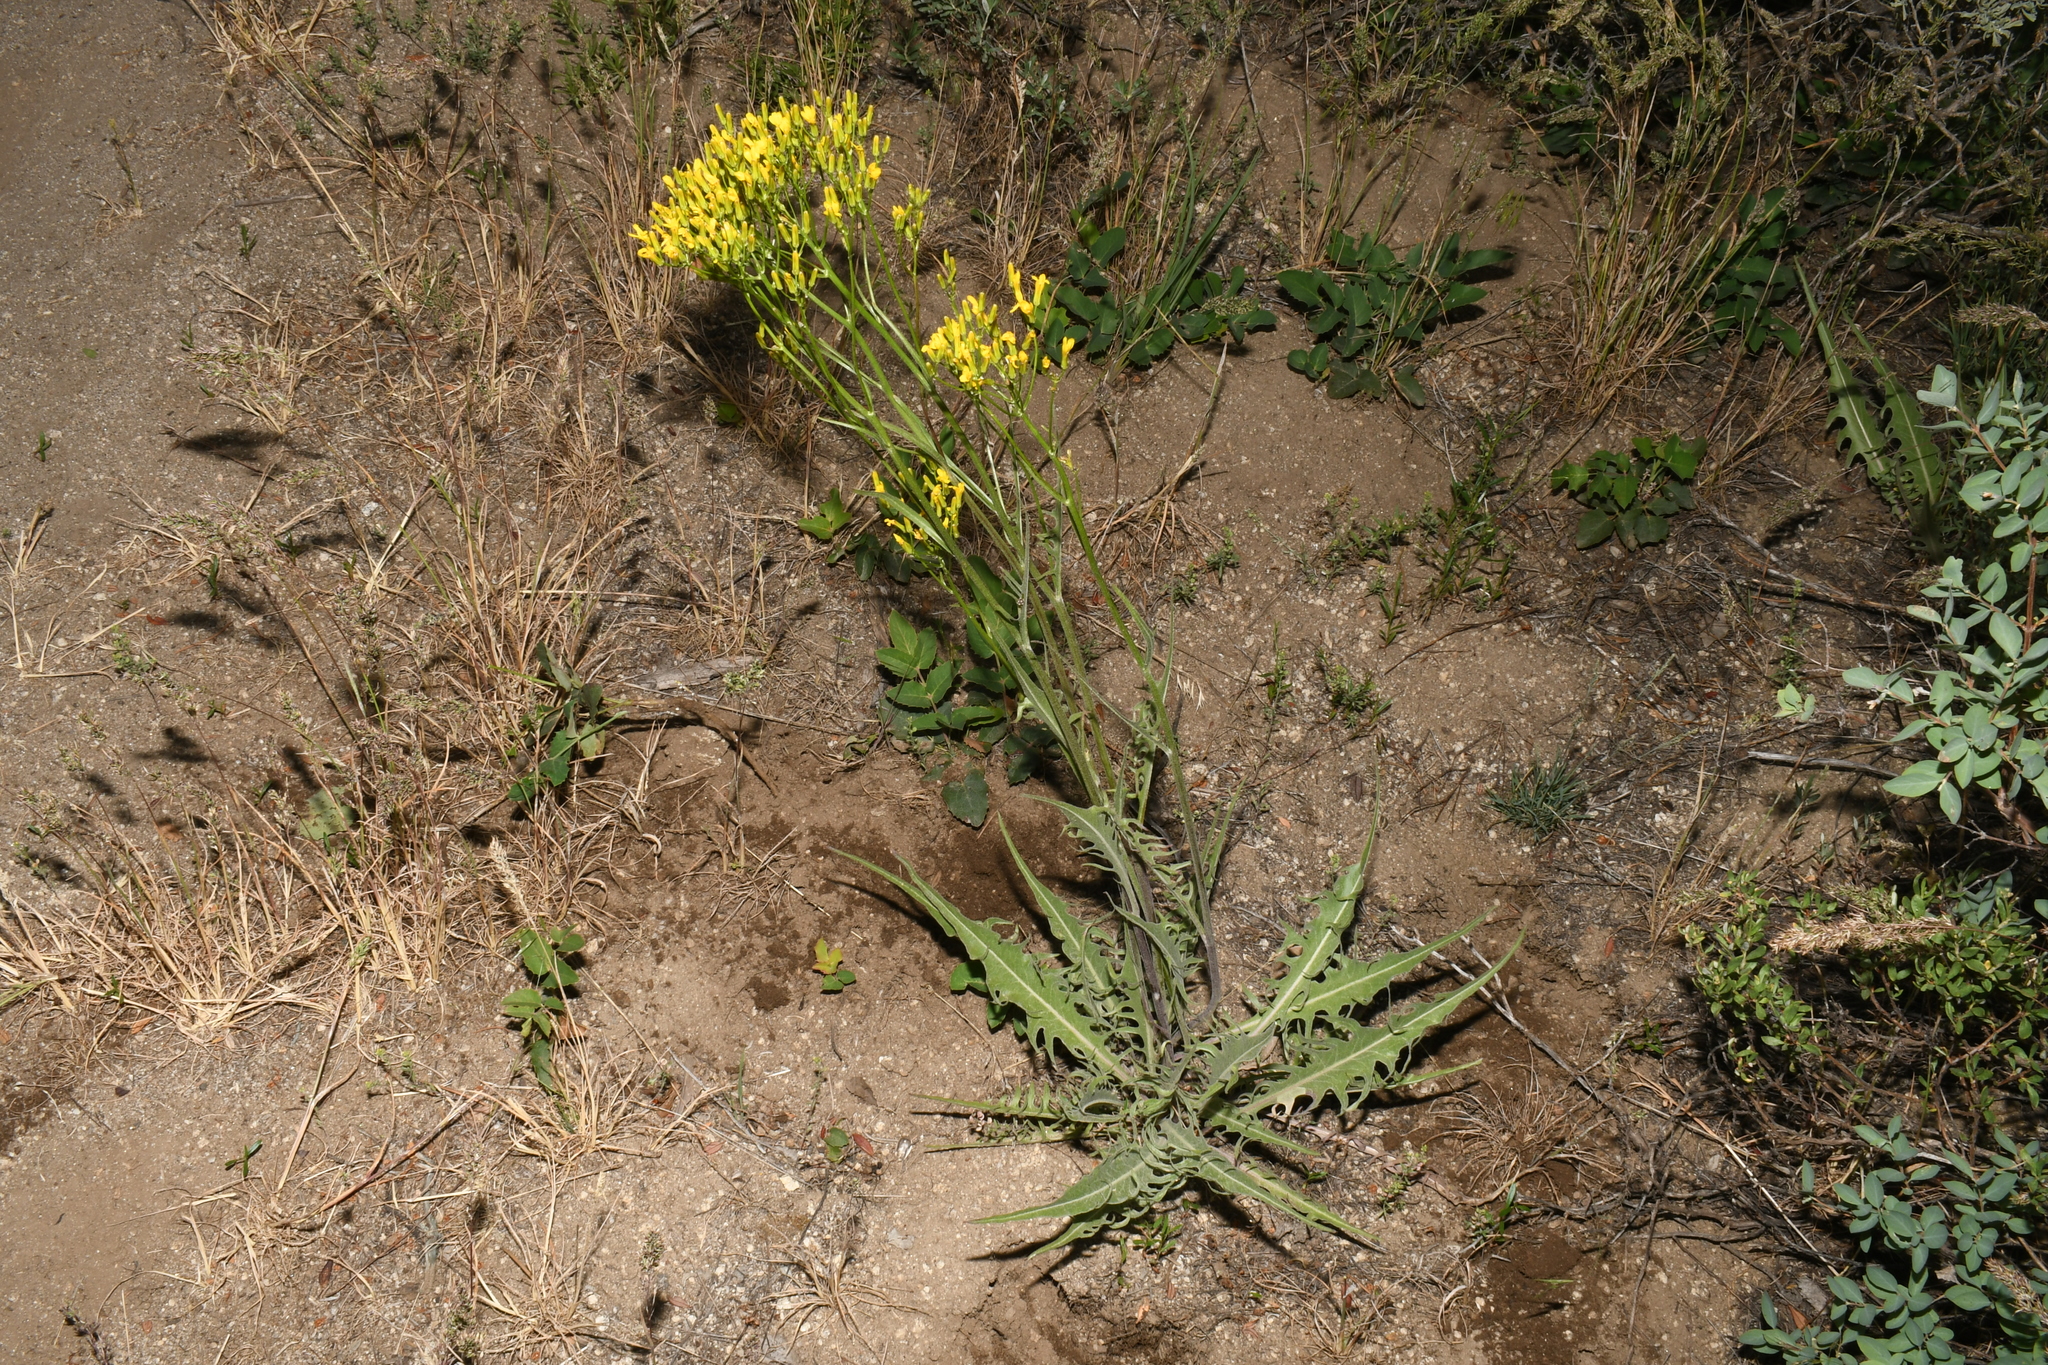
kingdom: Plantae
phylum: Tracheophyta
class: Magnoliopsida
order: Asterales
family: Asteraceae
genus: Crepis
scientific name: Crepis acuminata
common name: Longleaf hawk's-beard
